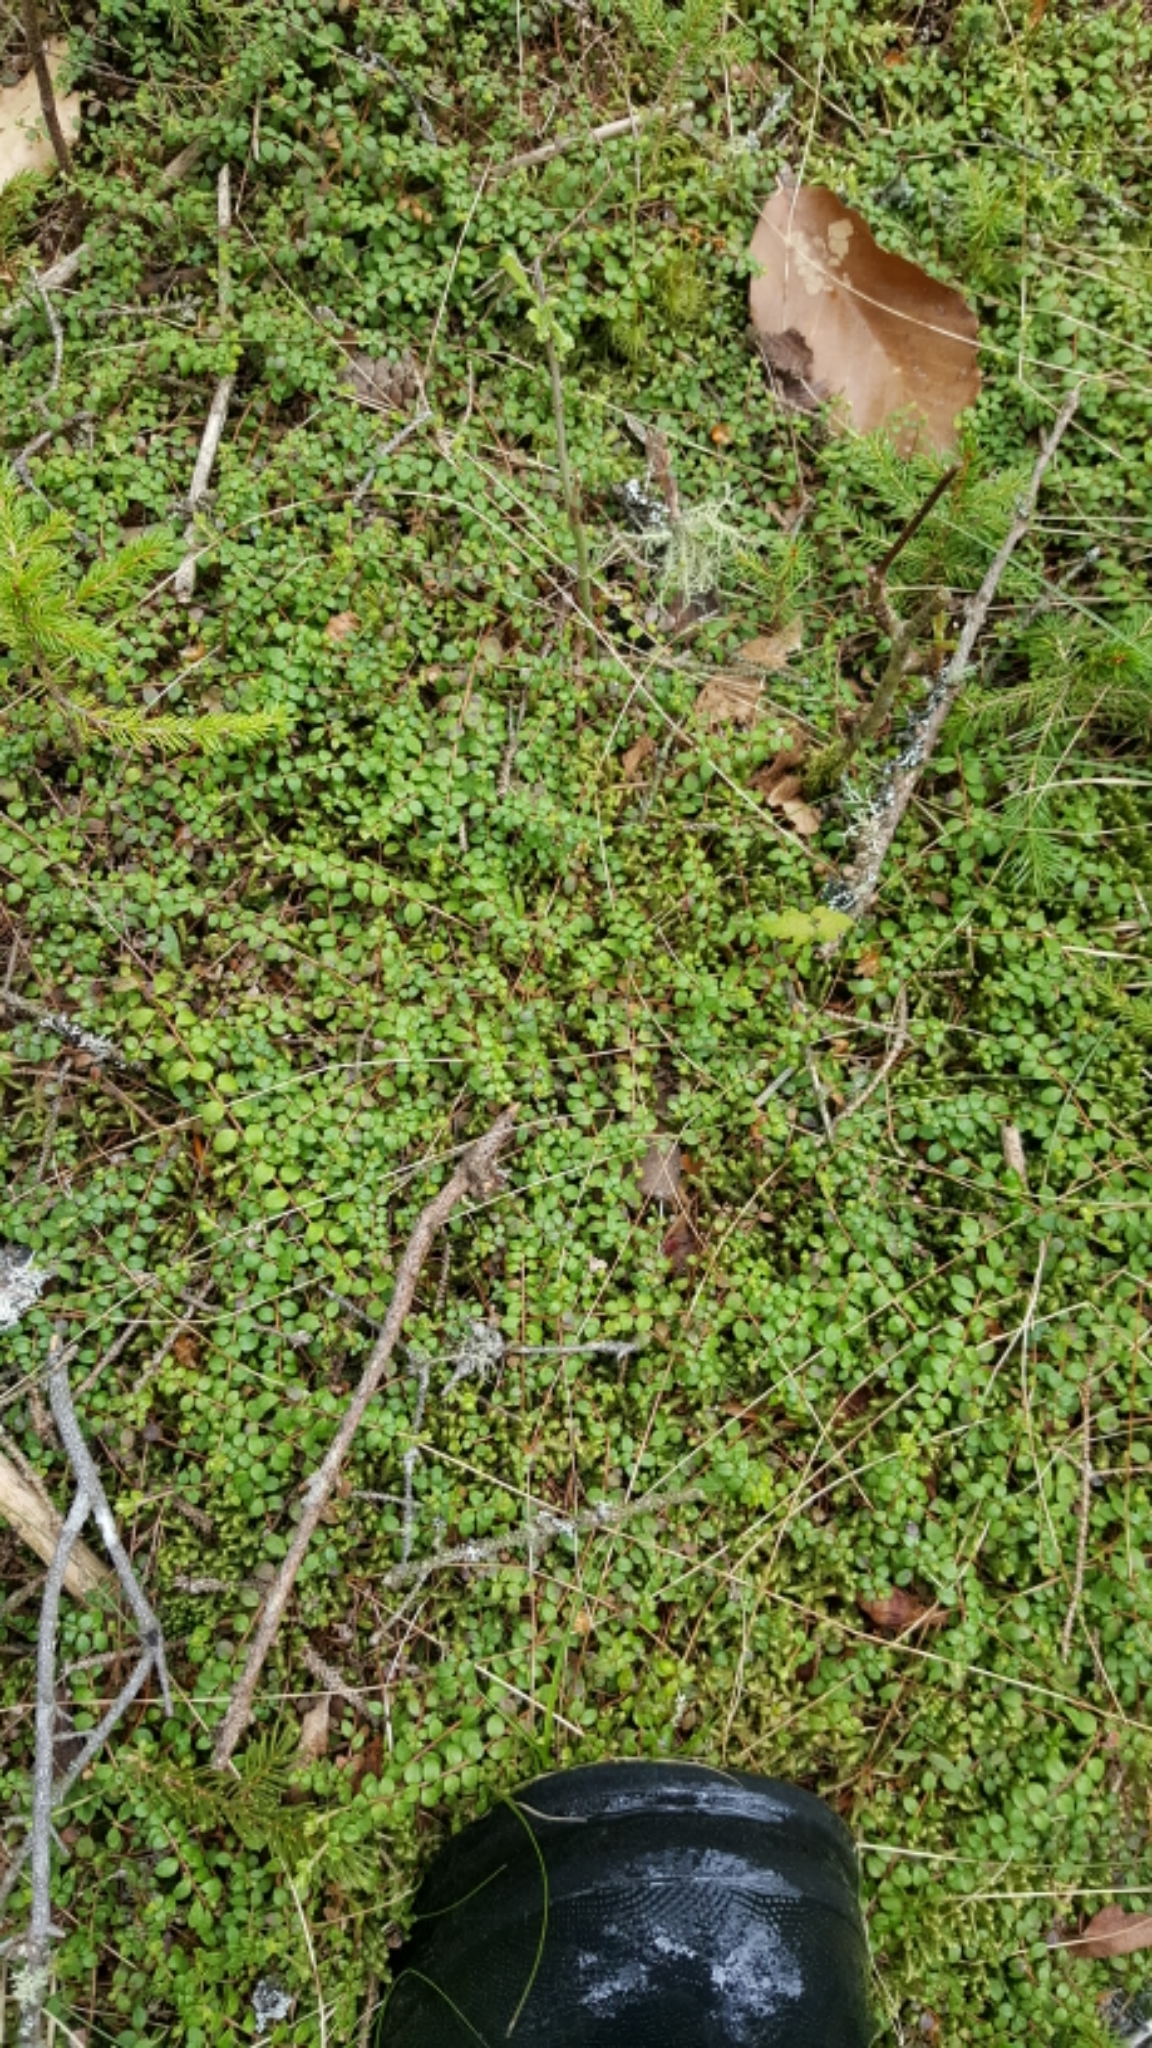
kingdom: Plantae
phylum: Tracheophyta
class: Magnoliopsida
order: Ericales
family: Ericaceae
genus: Gaultheria
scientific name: Gaultheria hispidula
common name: Cancer wintergreen
